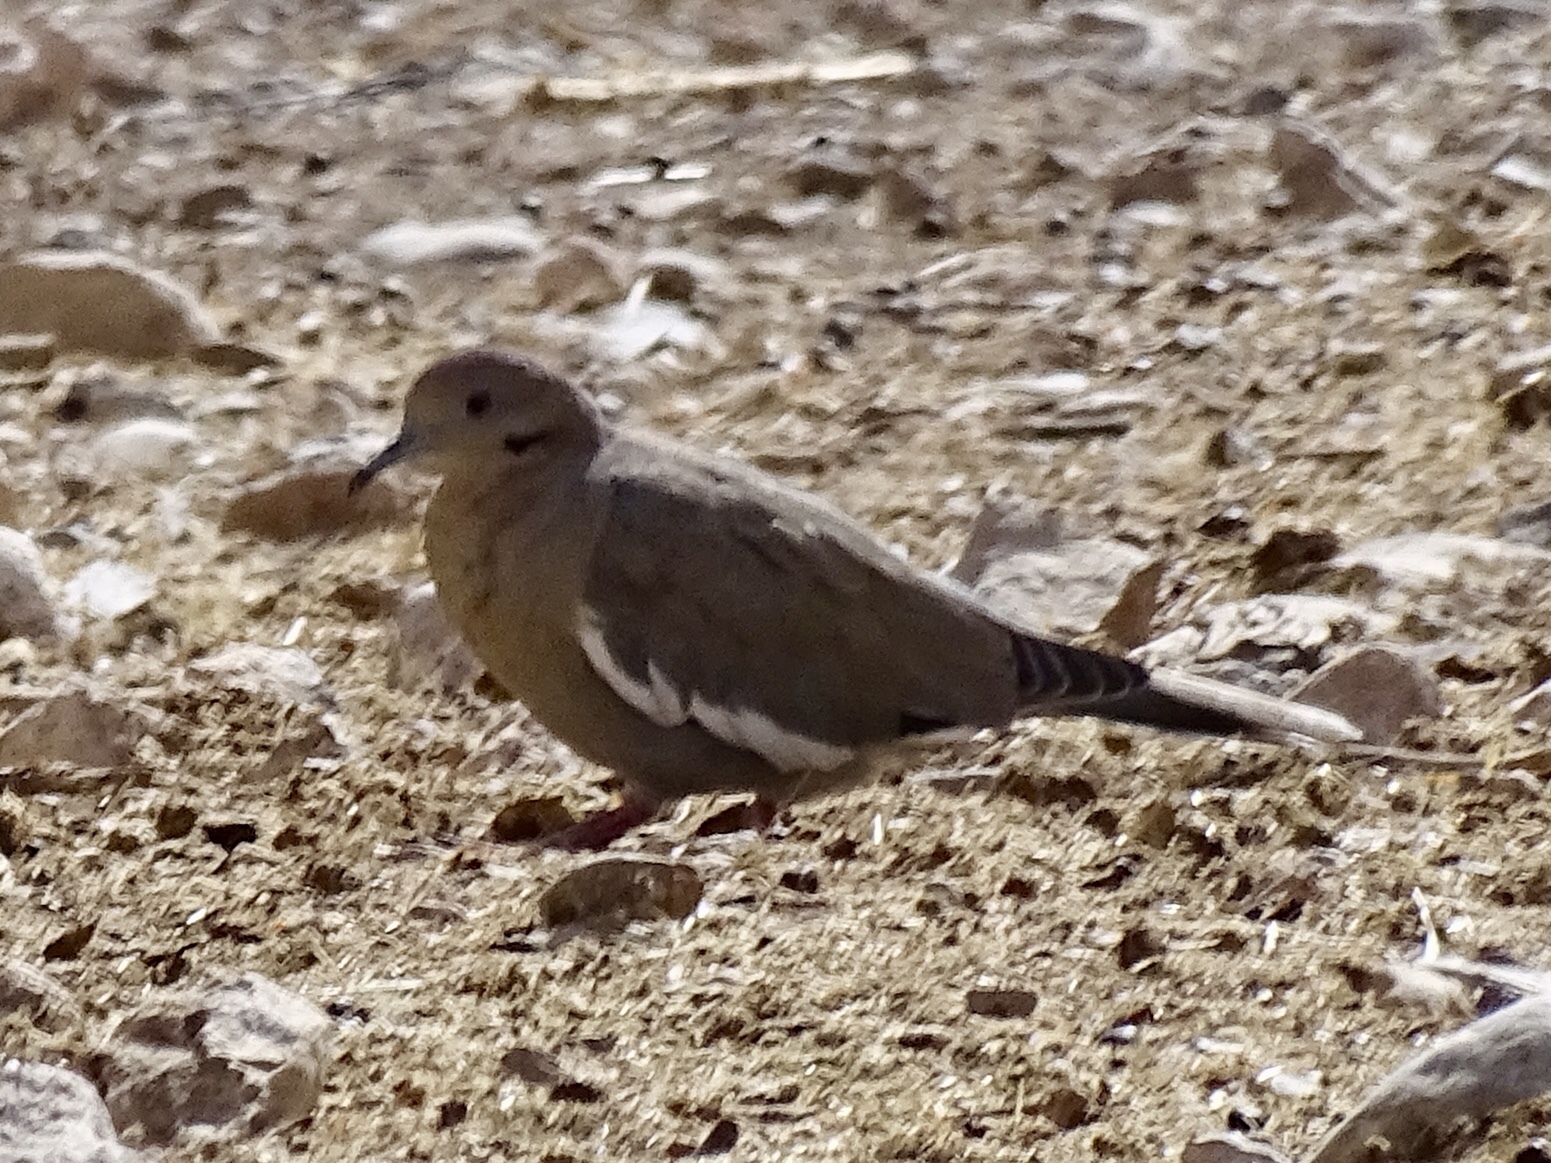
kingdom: Animalia
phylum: Chordata
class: Aves
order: Columbiformes
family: Columbidae
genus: Zenaida
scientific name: Zenaida asiatica
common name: White-winged dove
